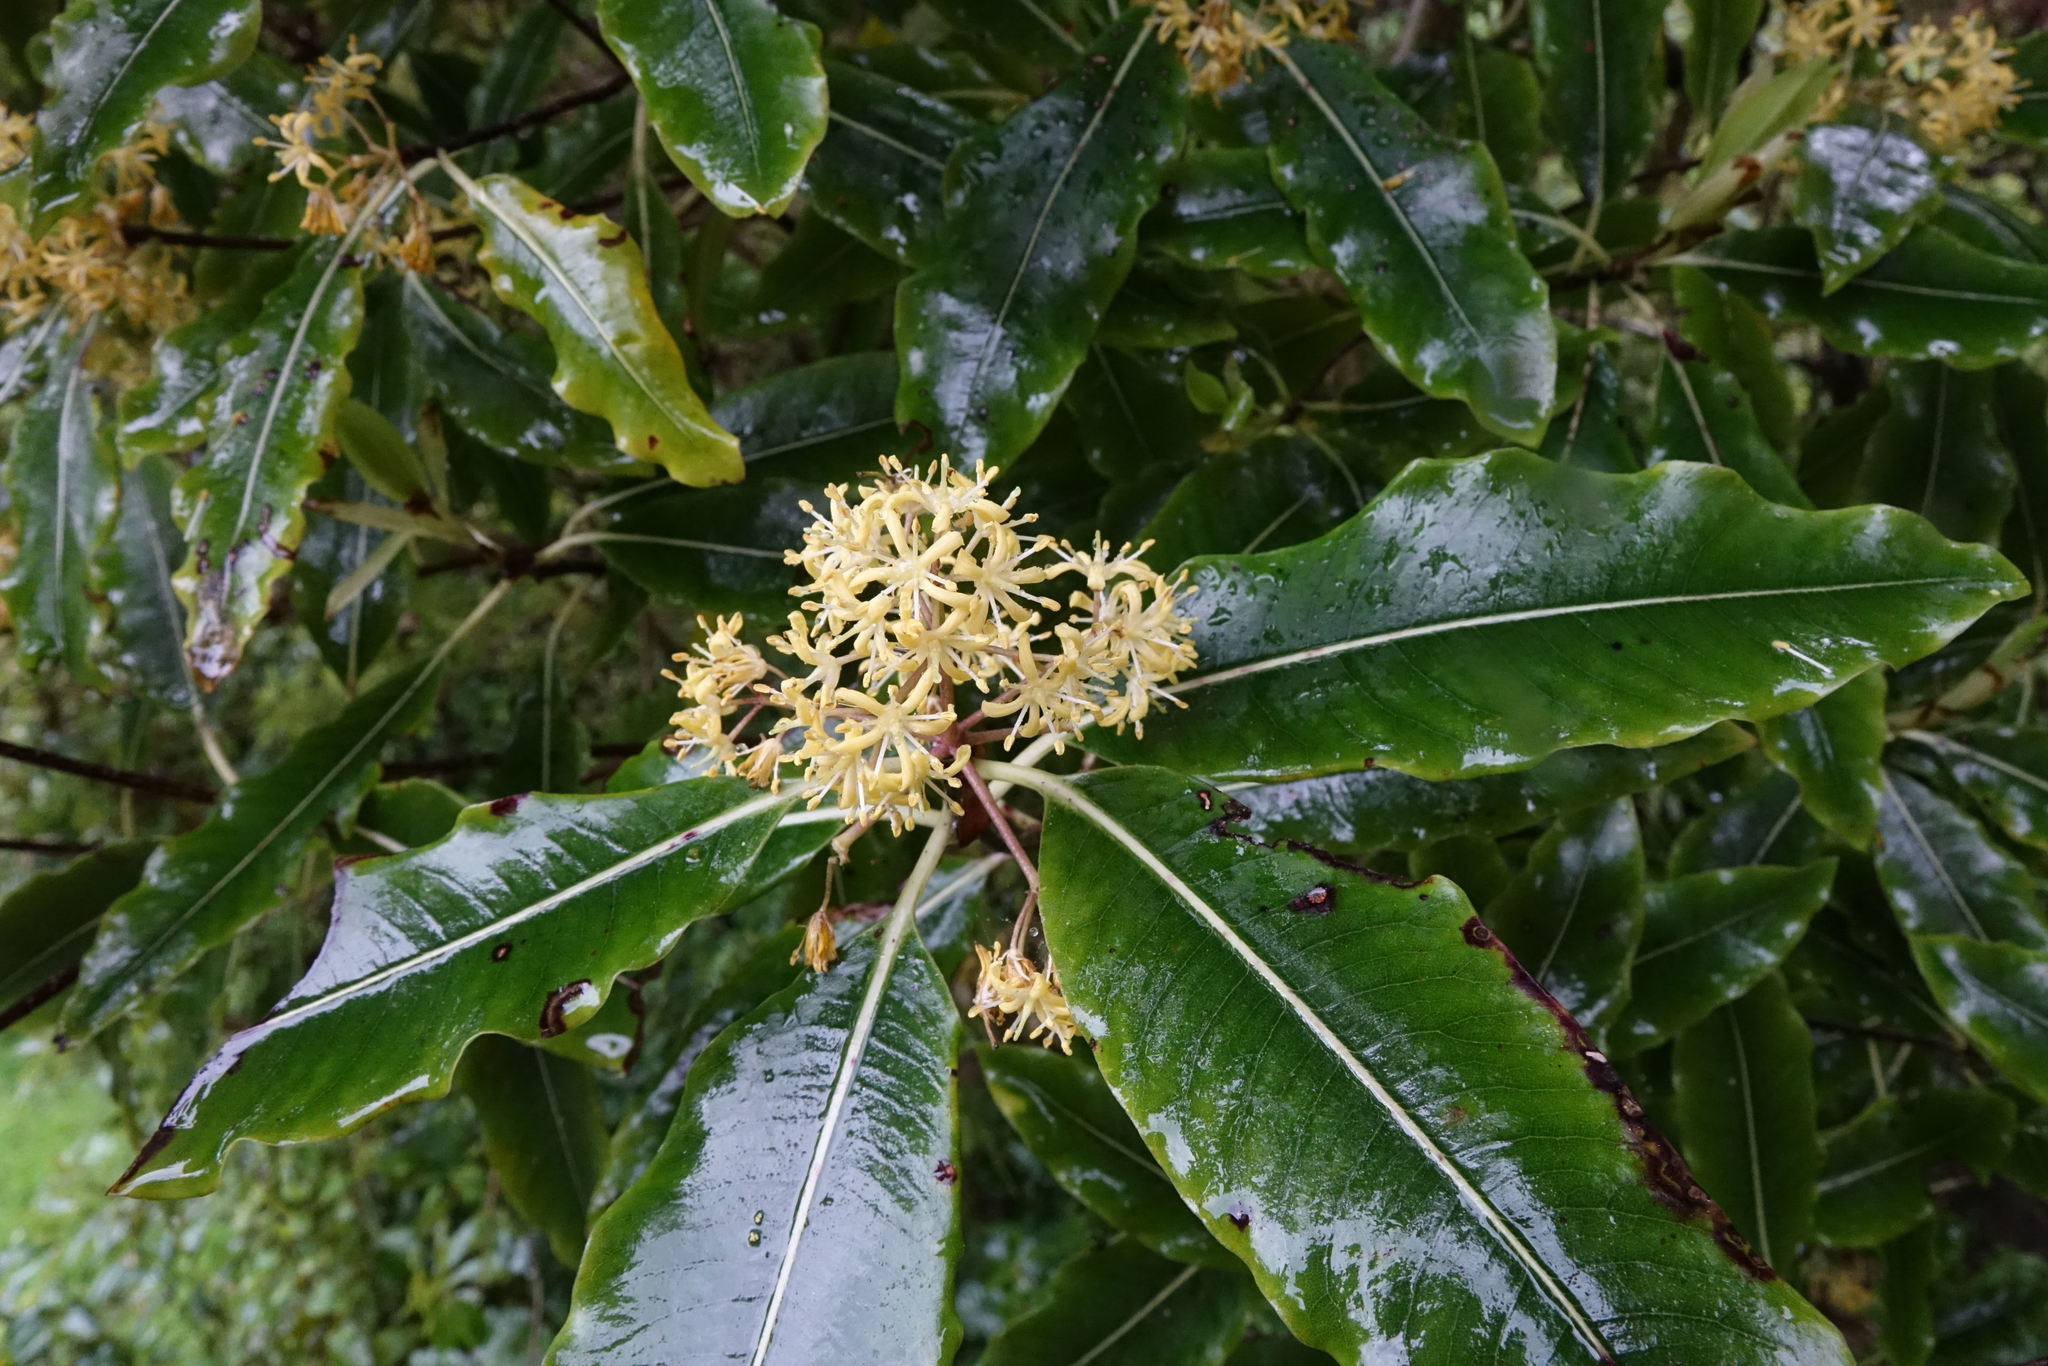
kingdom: Plantae
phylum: Tracheophyta
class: Magnoliopsida
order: Apiales
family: Pittosporaceae
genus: Pittosporum
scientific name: Pittosporum eugenioides
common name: Lemonwood
